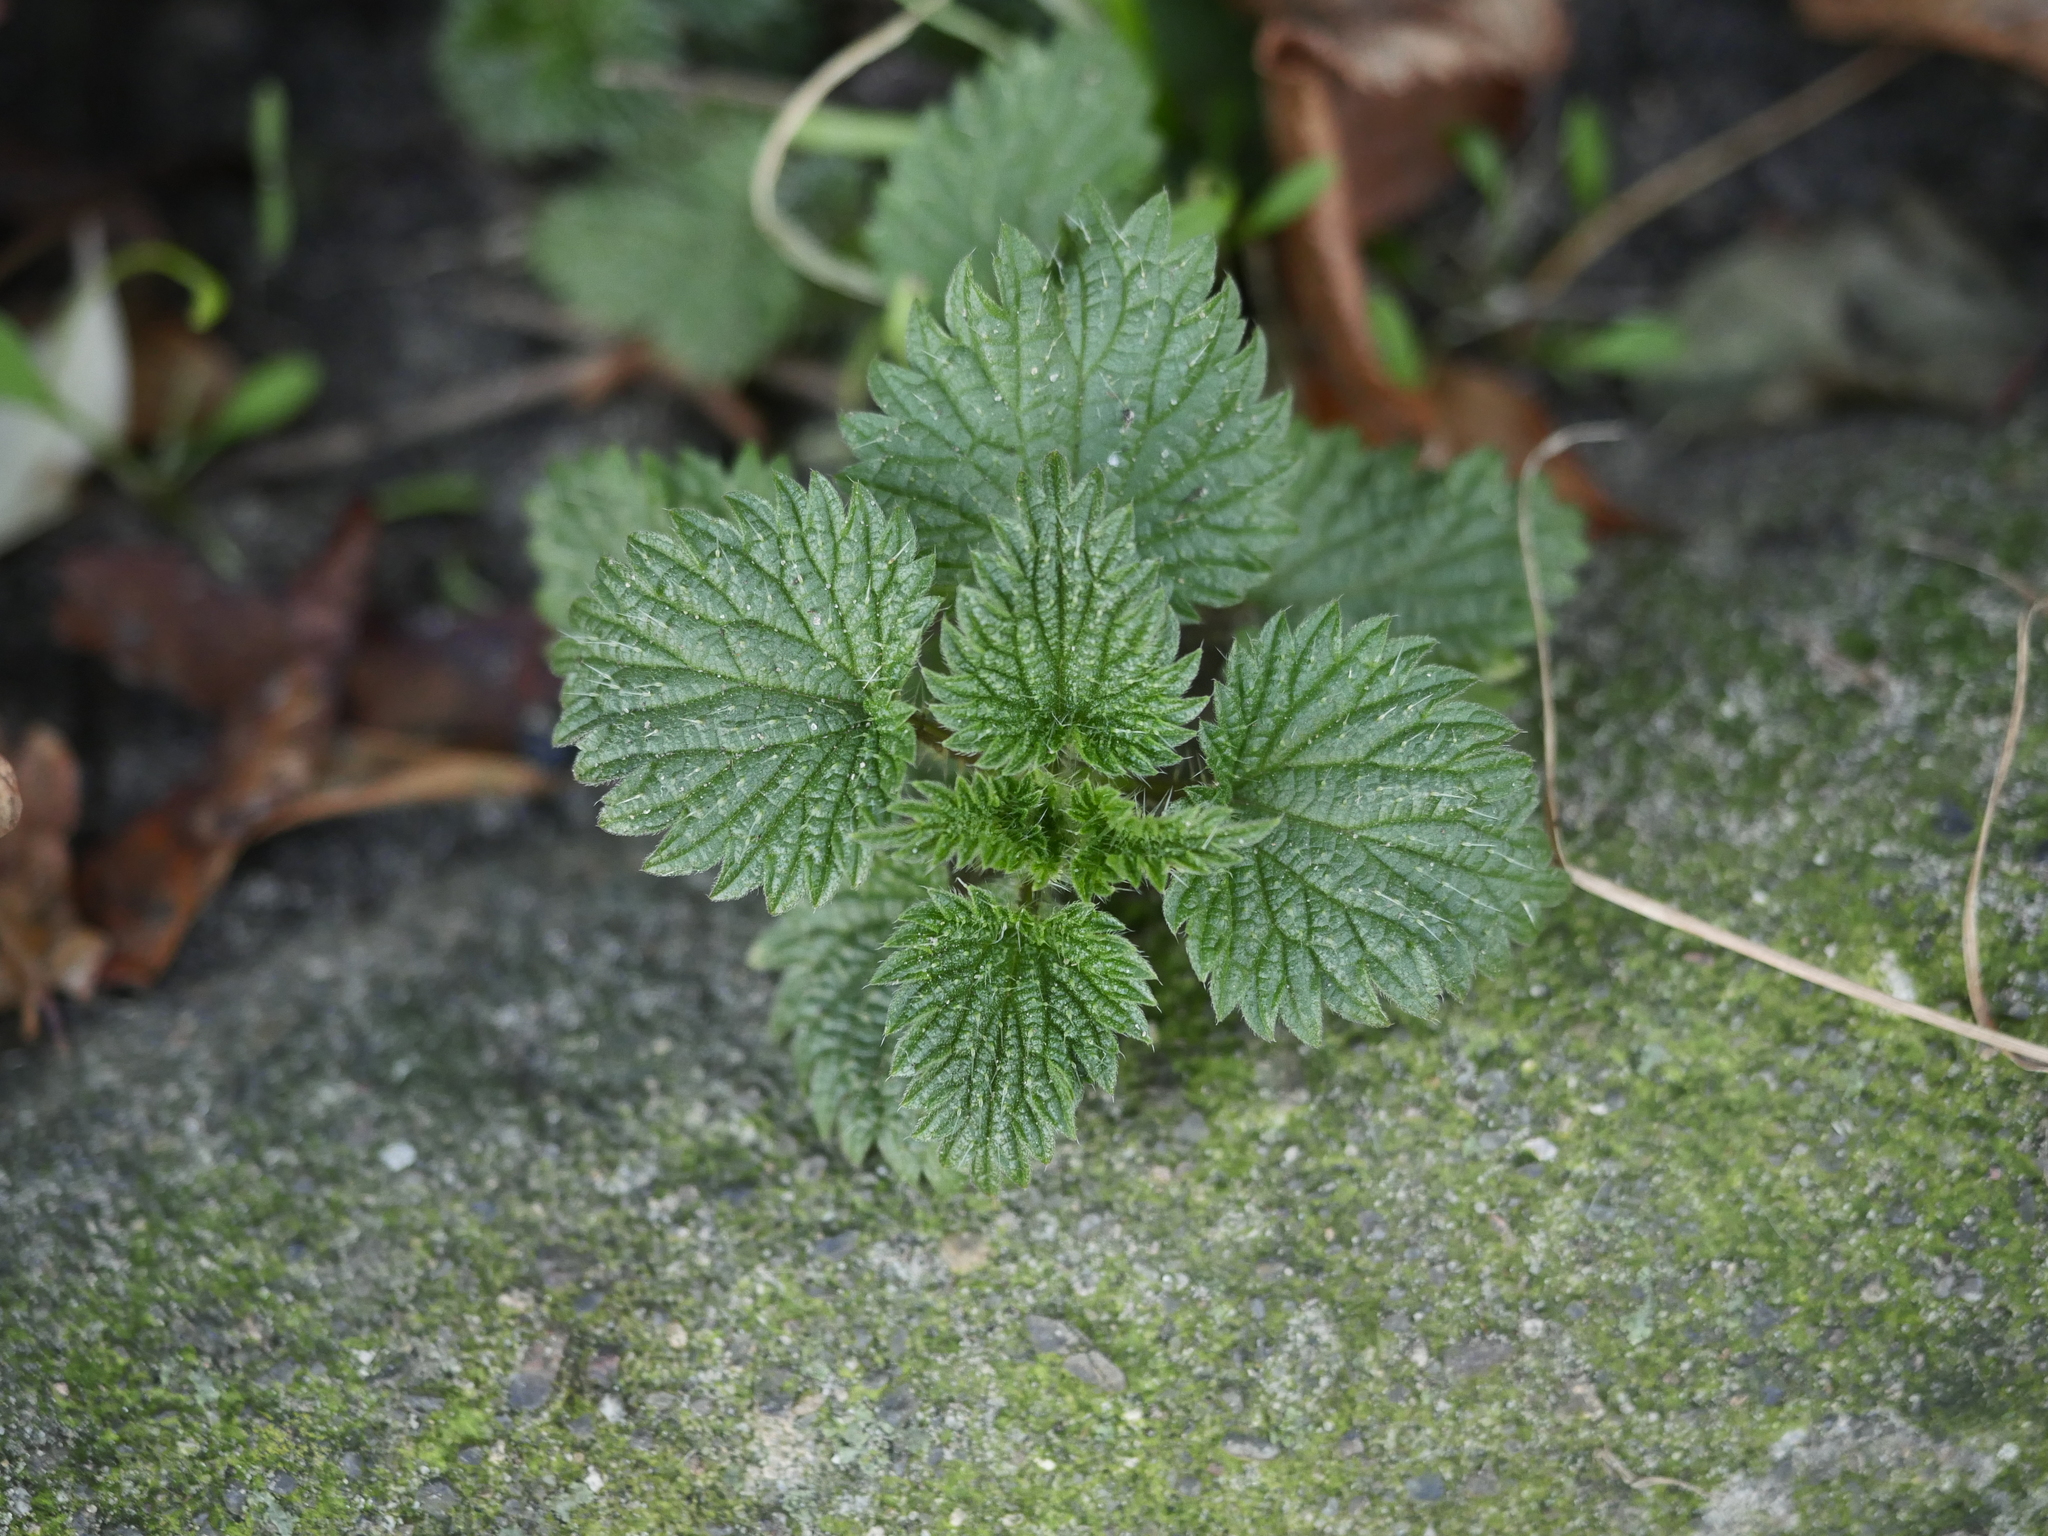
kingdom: Plantae
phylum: Tracheophyta
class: Magnoliopsida
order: Rosales
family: Urticaceae
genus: Urtica
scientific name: Urtica dioica
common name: Common nettle
